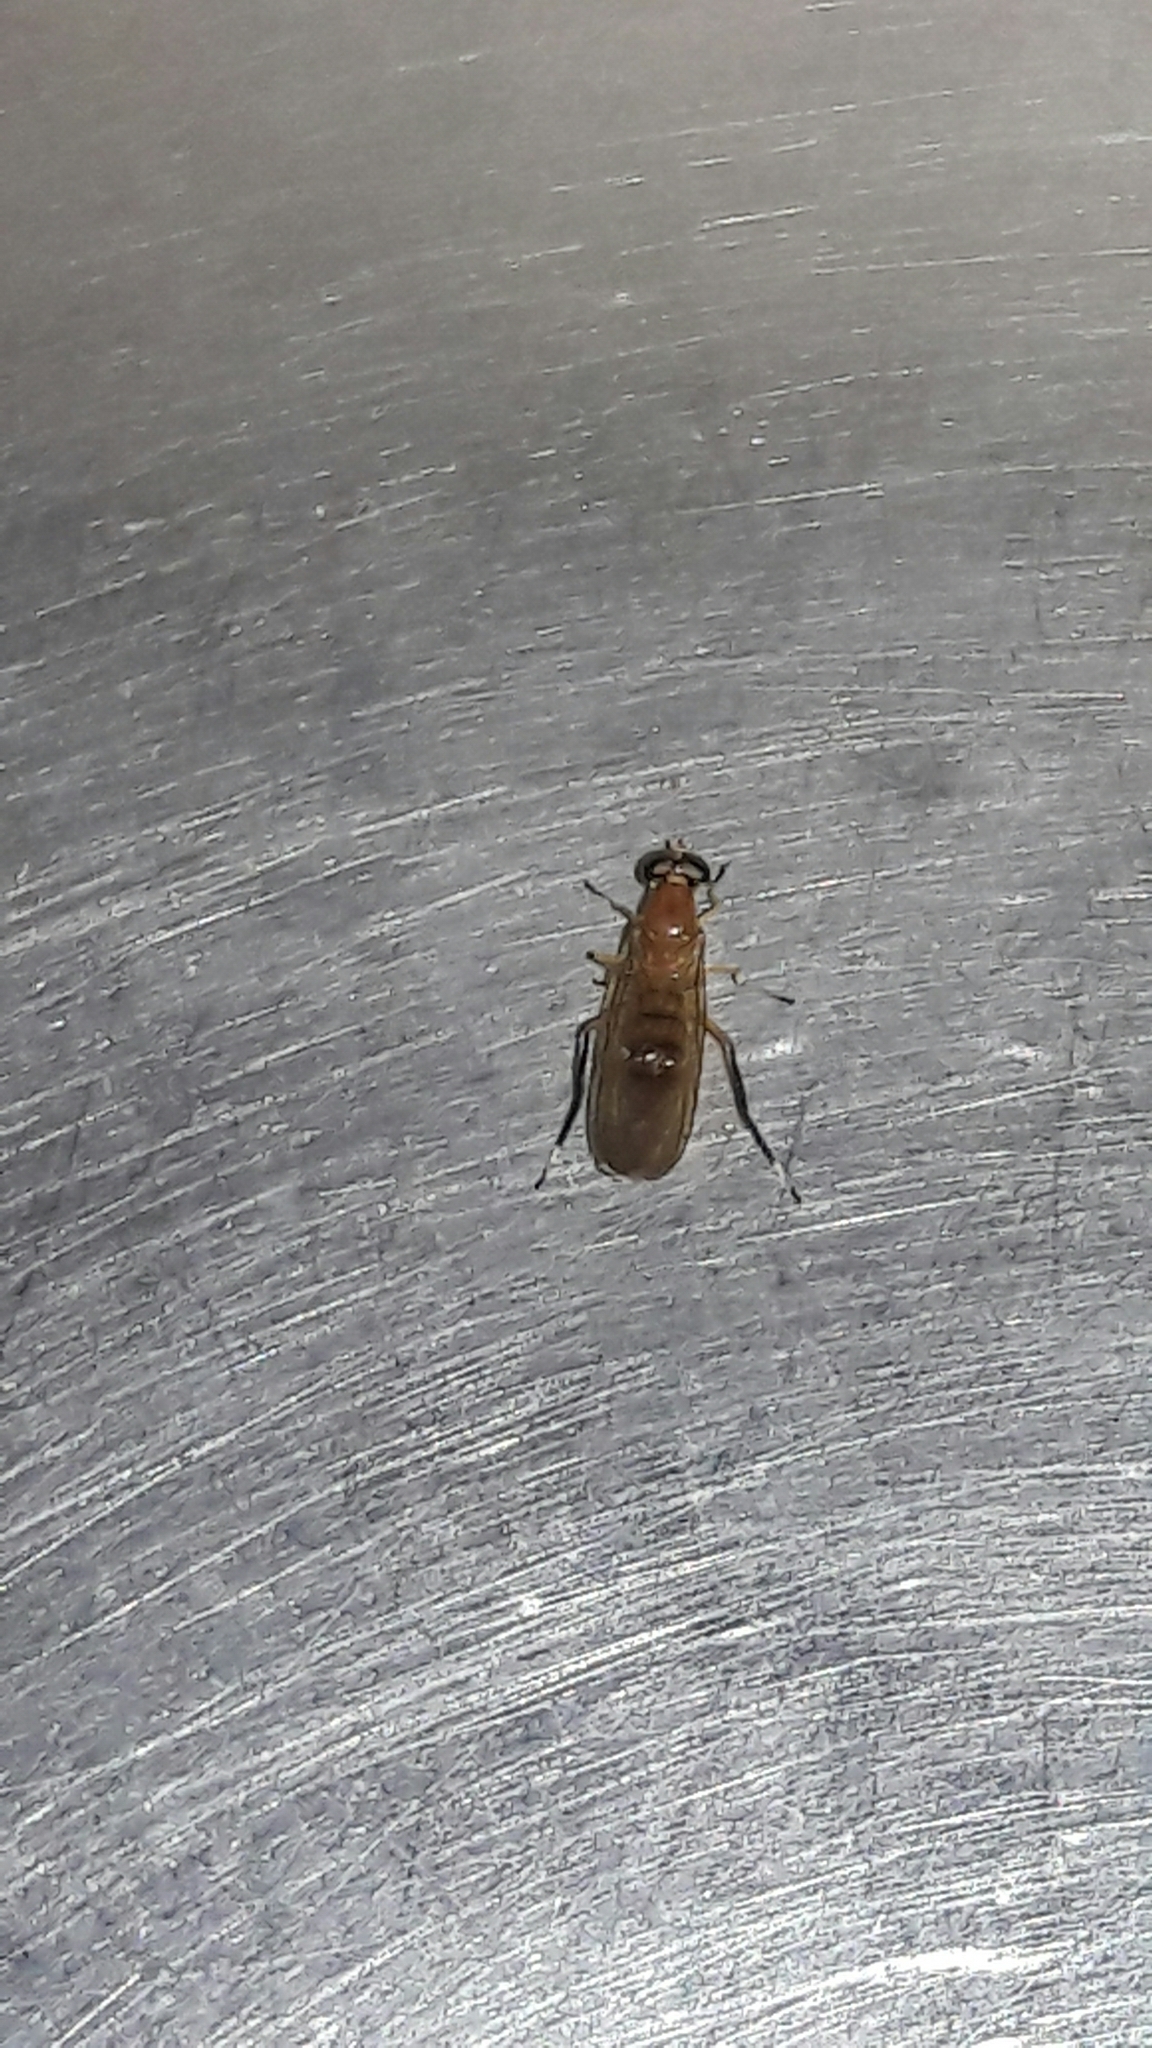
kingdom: Animalia
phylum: Arthropoda
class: Insecta
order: Diptera
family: Stratiomyidae
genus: Ptecticus
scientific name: Ptecticus testaceus
